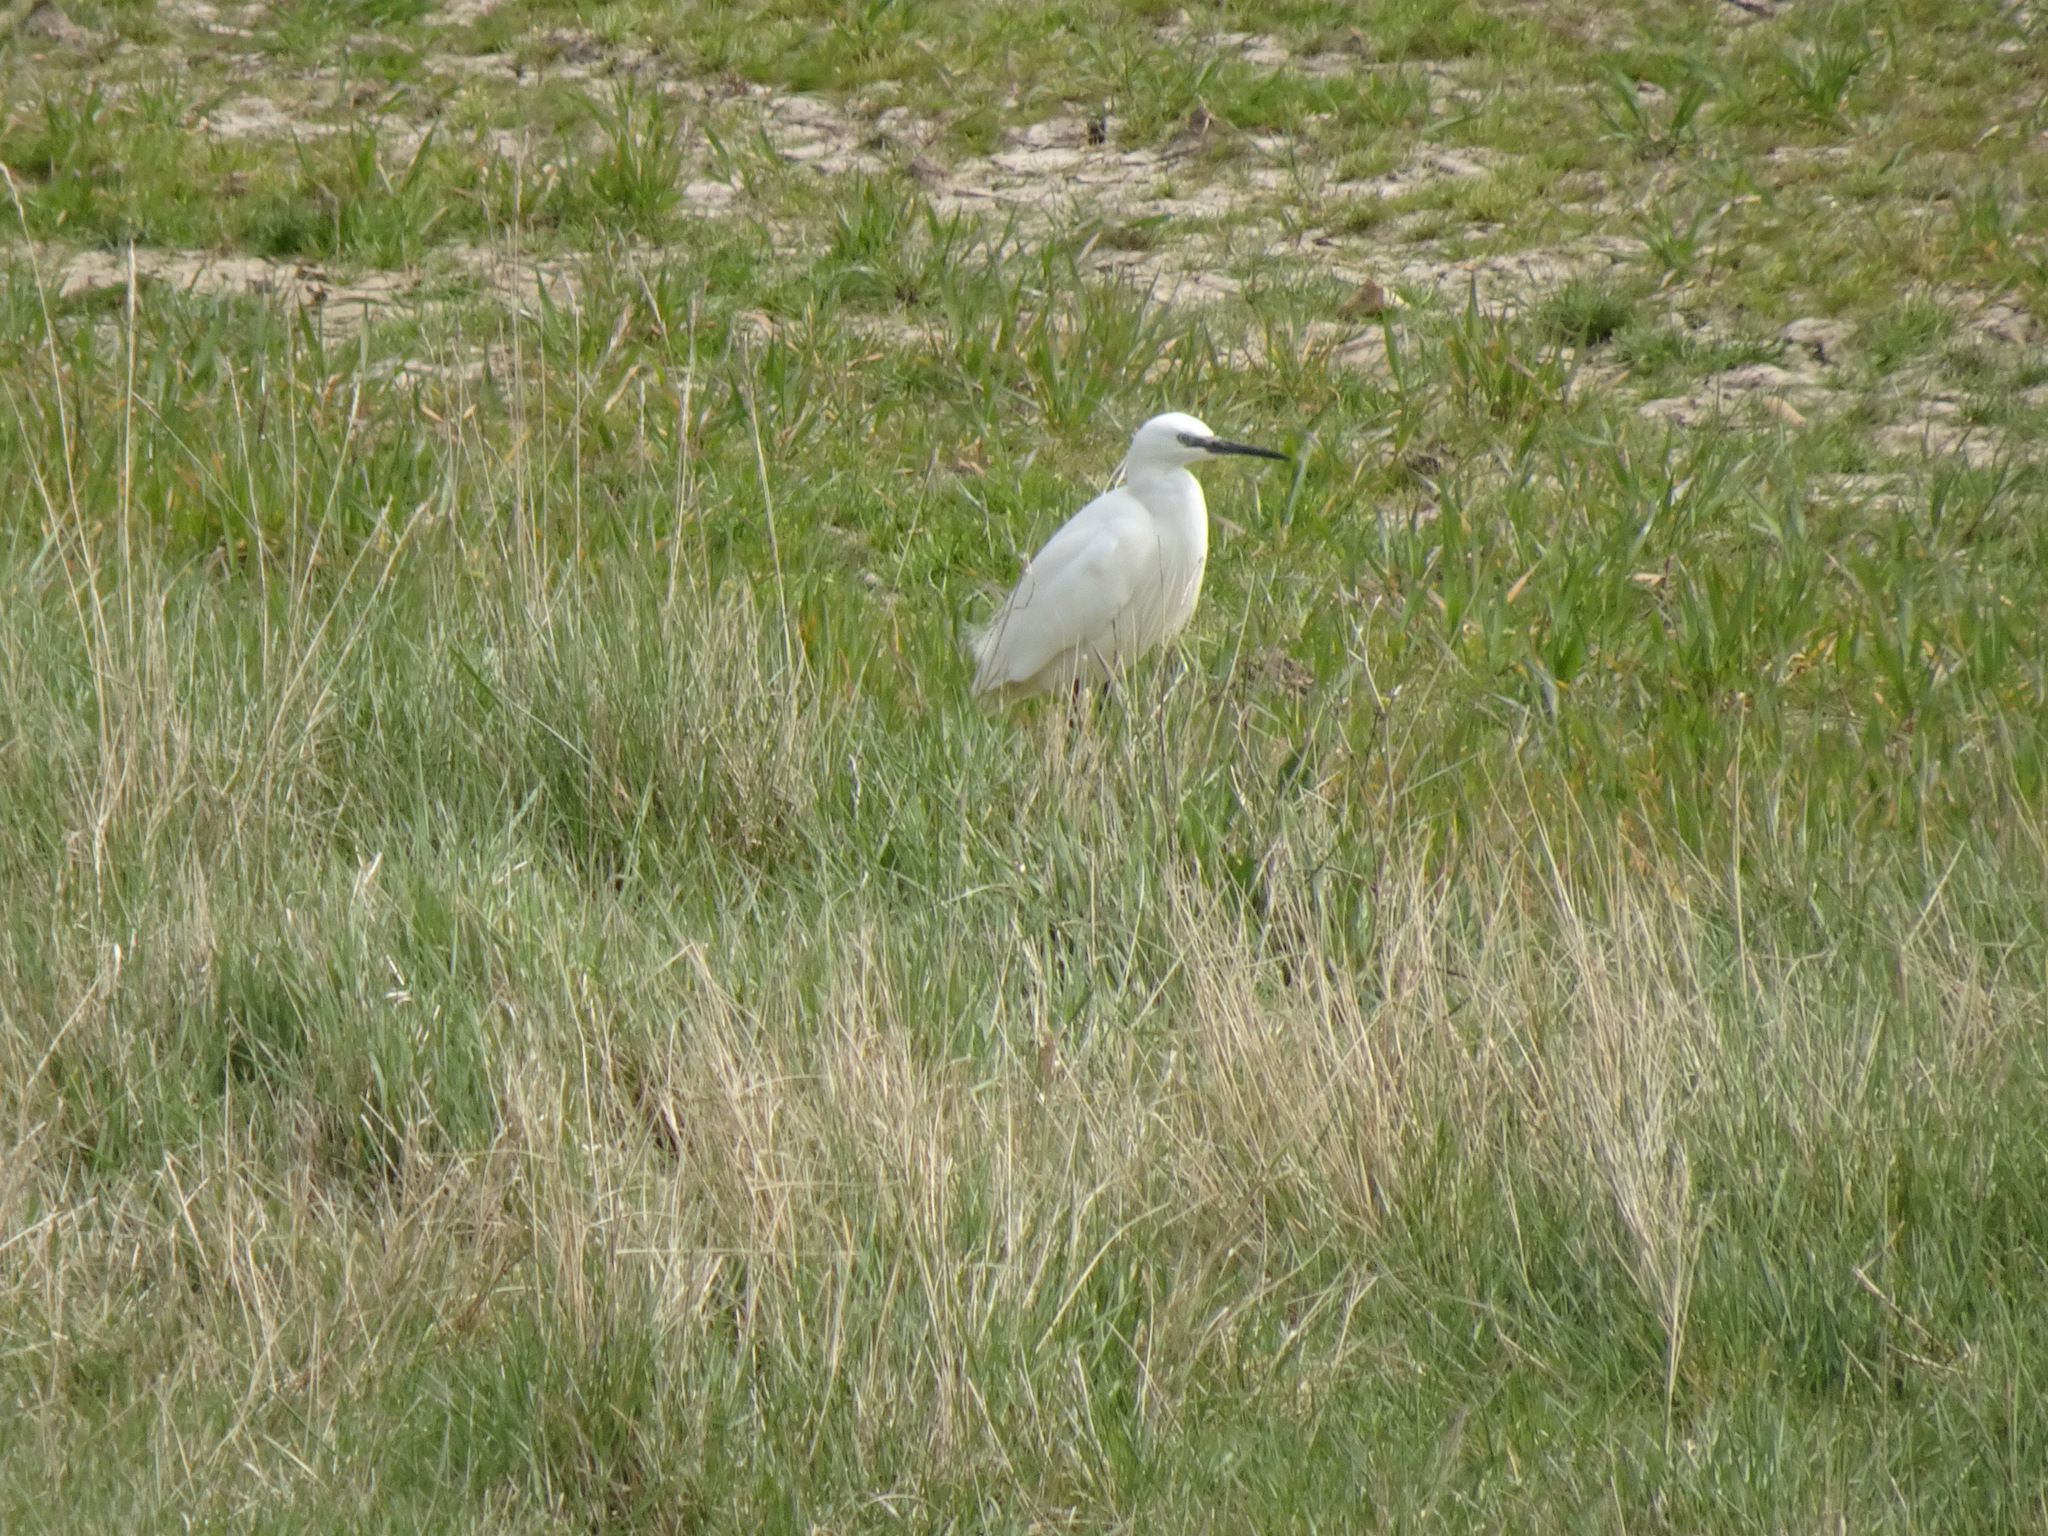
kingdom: Animalia
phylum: Chordata
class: Aves
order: Pelecaniformes
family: Ardeidae
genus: Egretta
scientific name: Egretta garzetta
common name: Little egret
